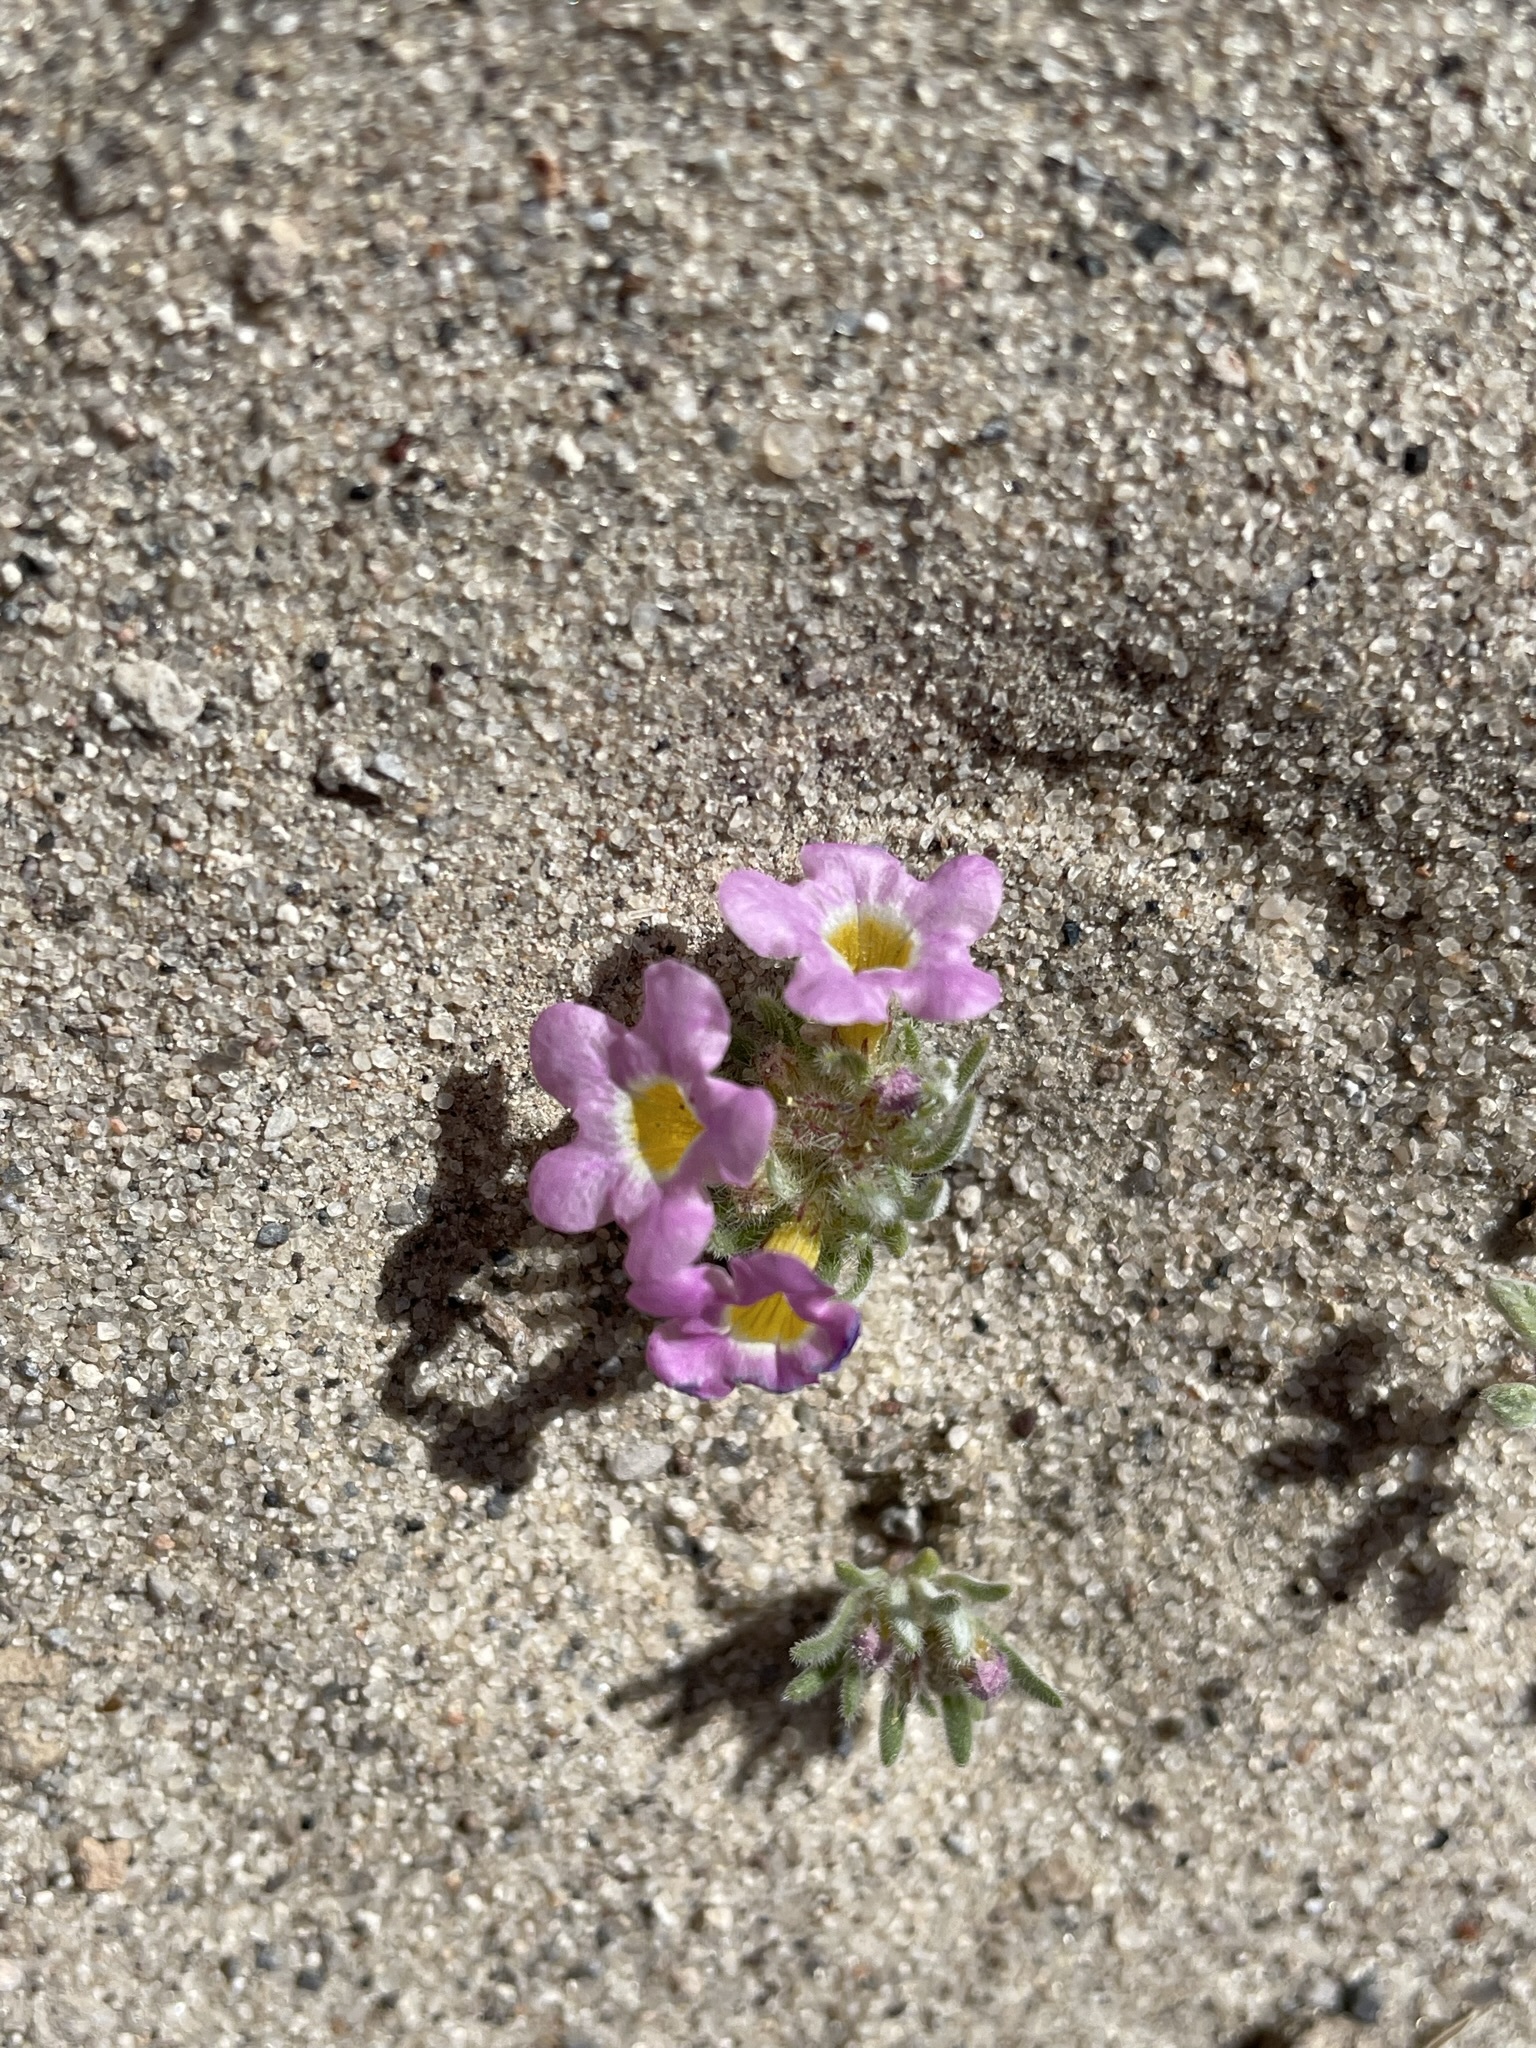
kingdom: Plantae
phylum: Tracheophyta
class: Magnoliopsida
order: Boraginales
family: Namaceae
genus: Nama
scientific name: Nama aretioides
